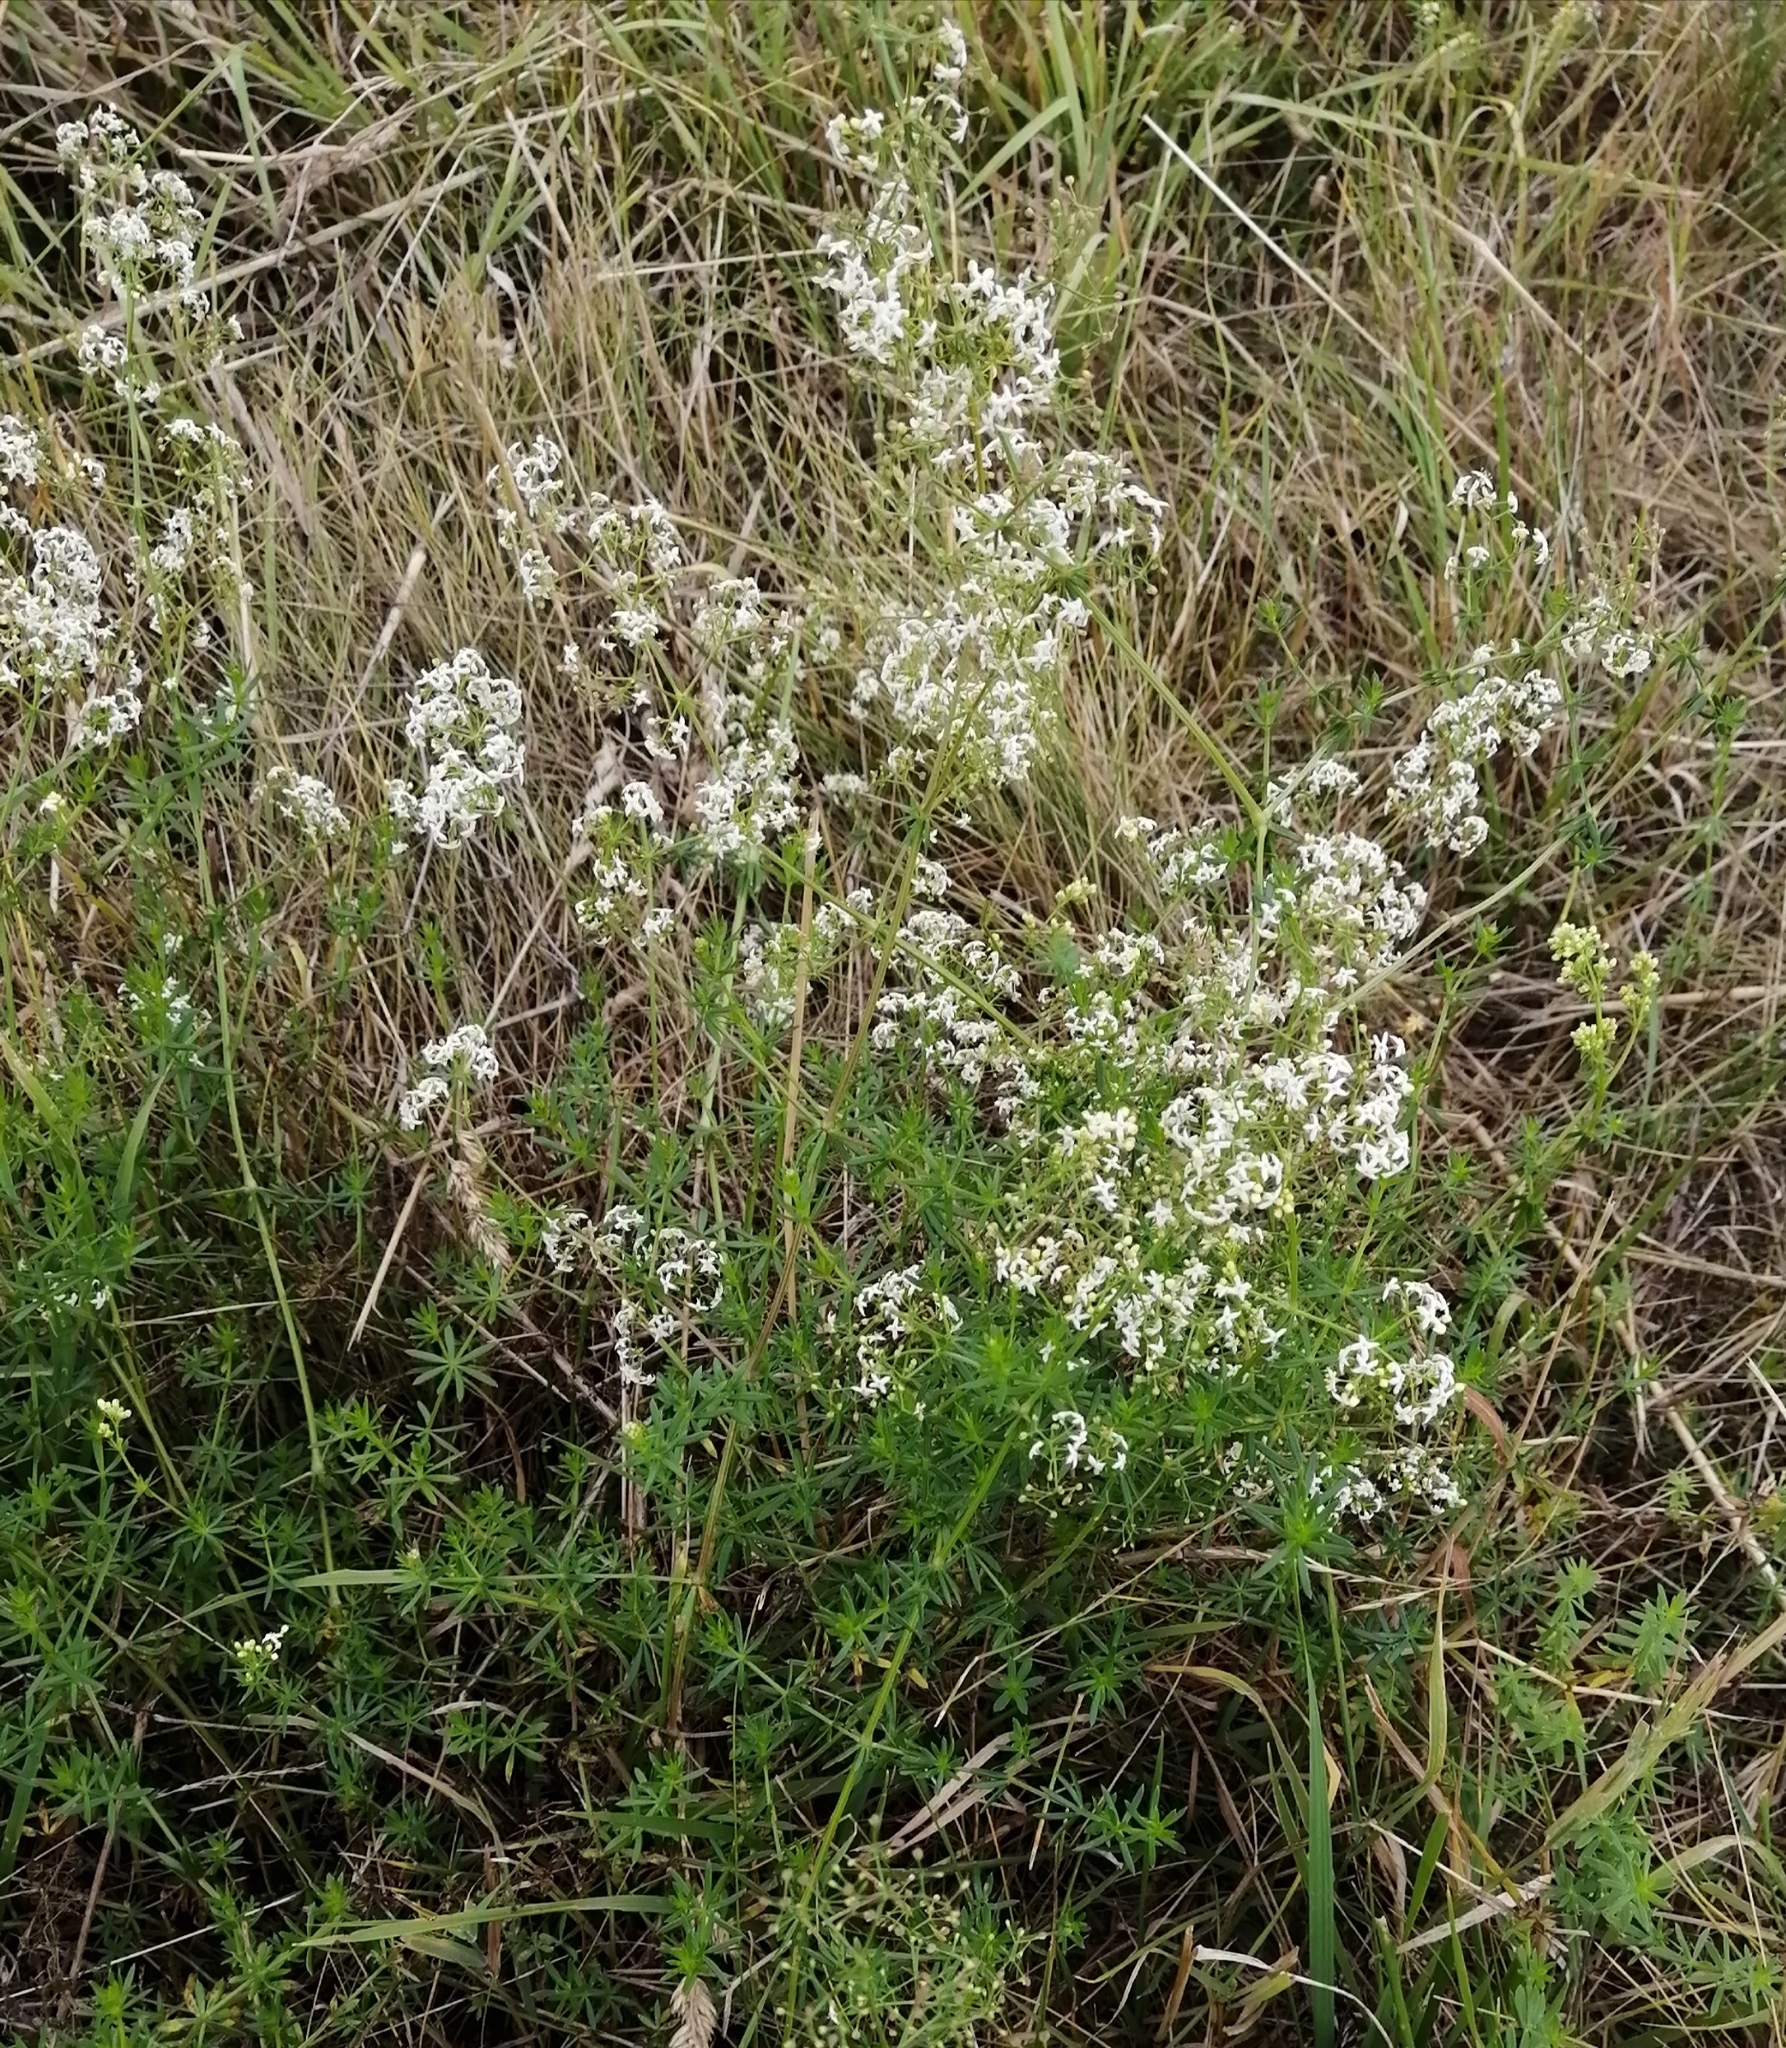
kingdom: Plantae
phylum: Tracheophyta
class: Magnoliopsida
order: Gentianales
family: Rubiaceae
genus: Galium
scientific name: Galium mollugo
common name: Hedge bedstraw
